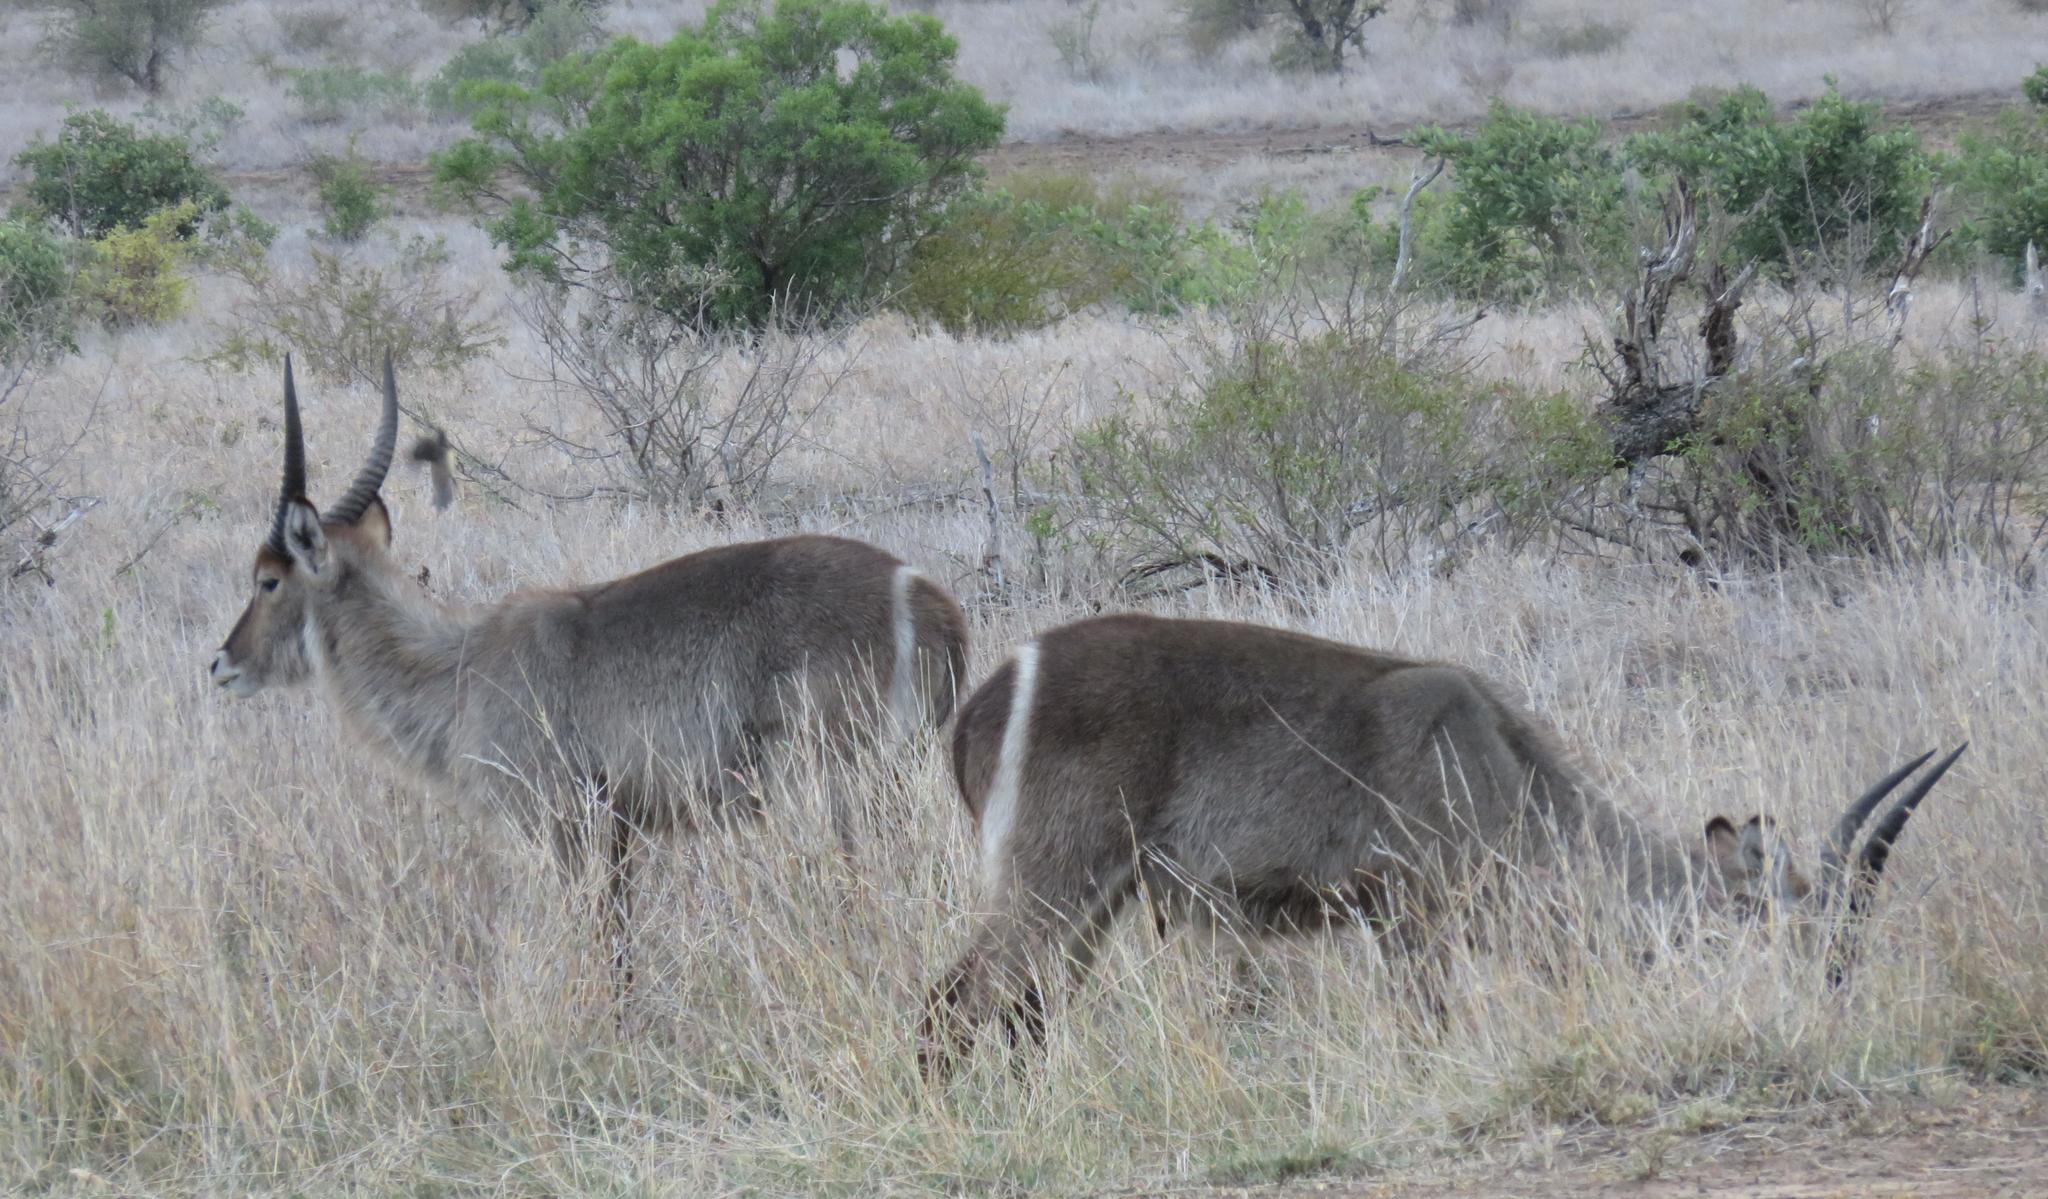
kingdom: Animalia
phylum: Chordata
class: Mammalia
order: Artiodactyla
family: Bovidae
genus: Kobus
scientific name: Kobus ellipsiprymnus
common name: Waterbuck
